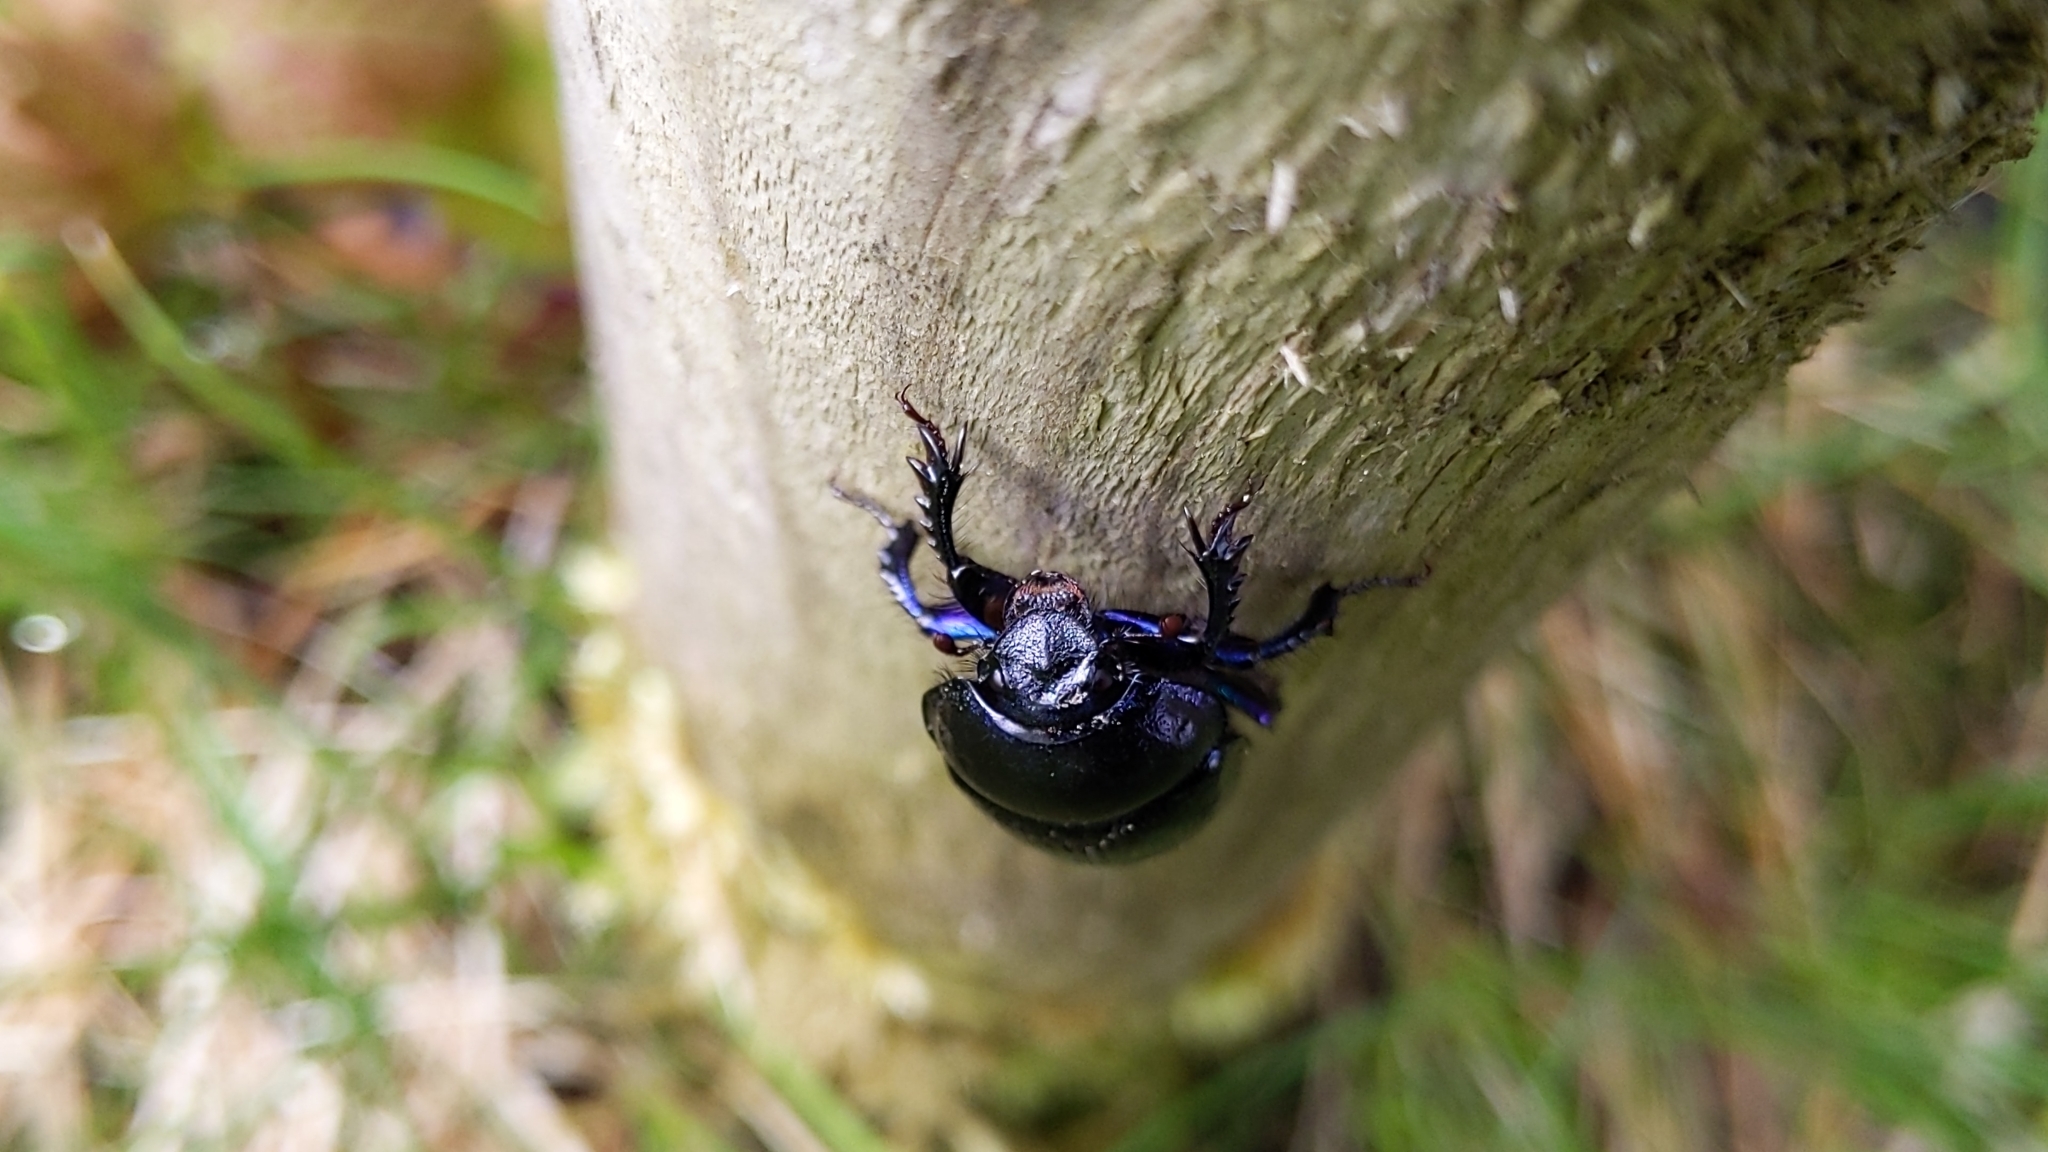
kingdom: Animalia
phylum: Arthropoda
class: Insecta
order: Coleoptera
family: Geotrupidae
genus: Anoplotrupes
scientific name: Anoplotrupes stercorosus
